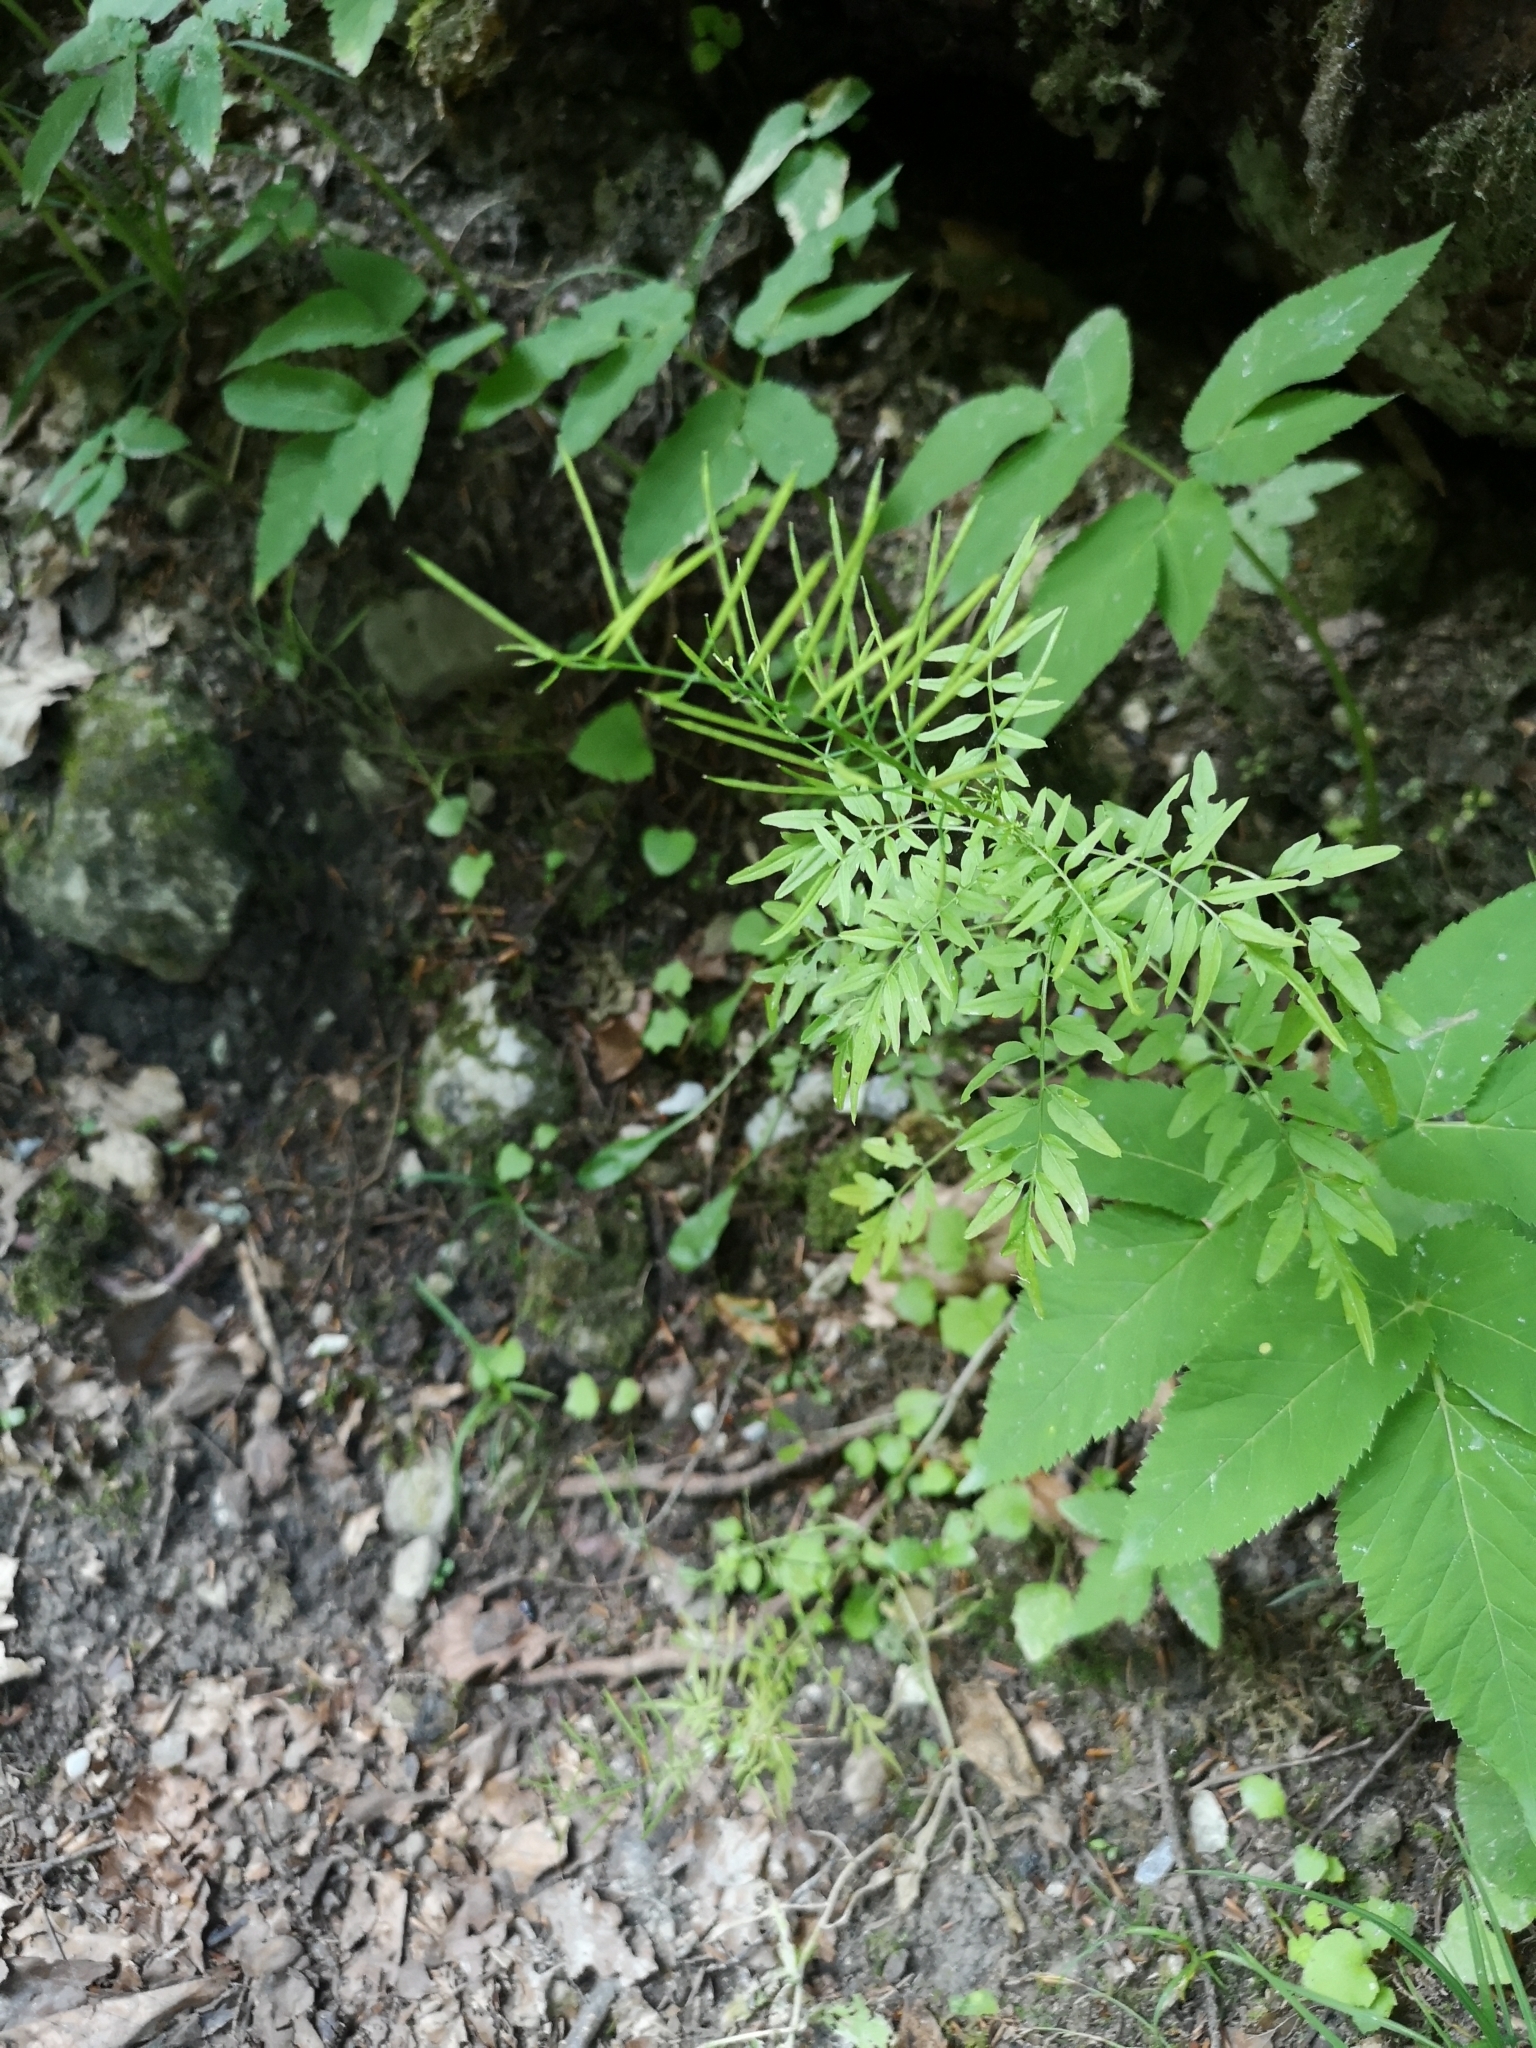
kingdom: Plantae
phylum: Tracheophyta
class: Magnoliopsida
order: Brassicales
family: Brassicaceae
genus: Cardamine
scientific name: Cardamine impatiens
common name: Narrow-leaved bitter-cress
